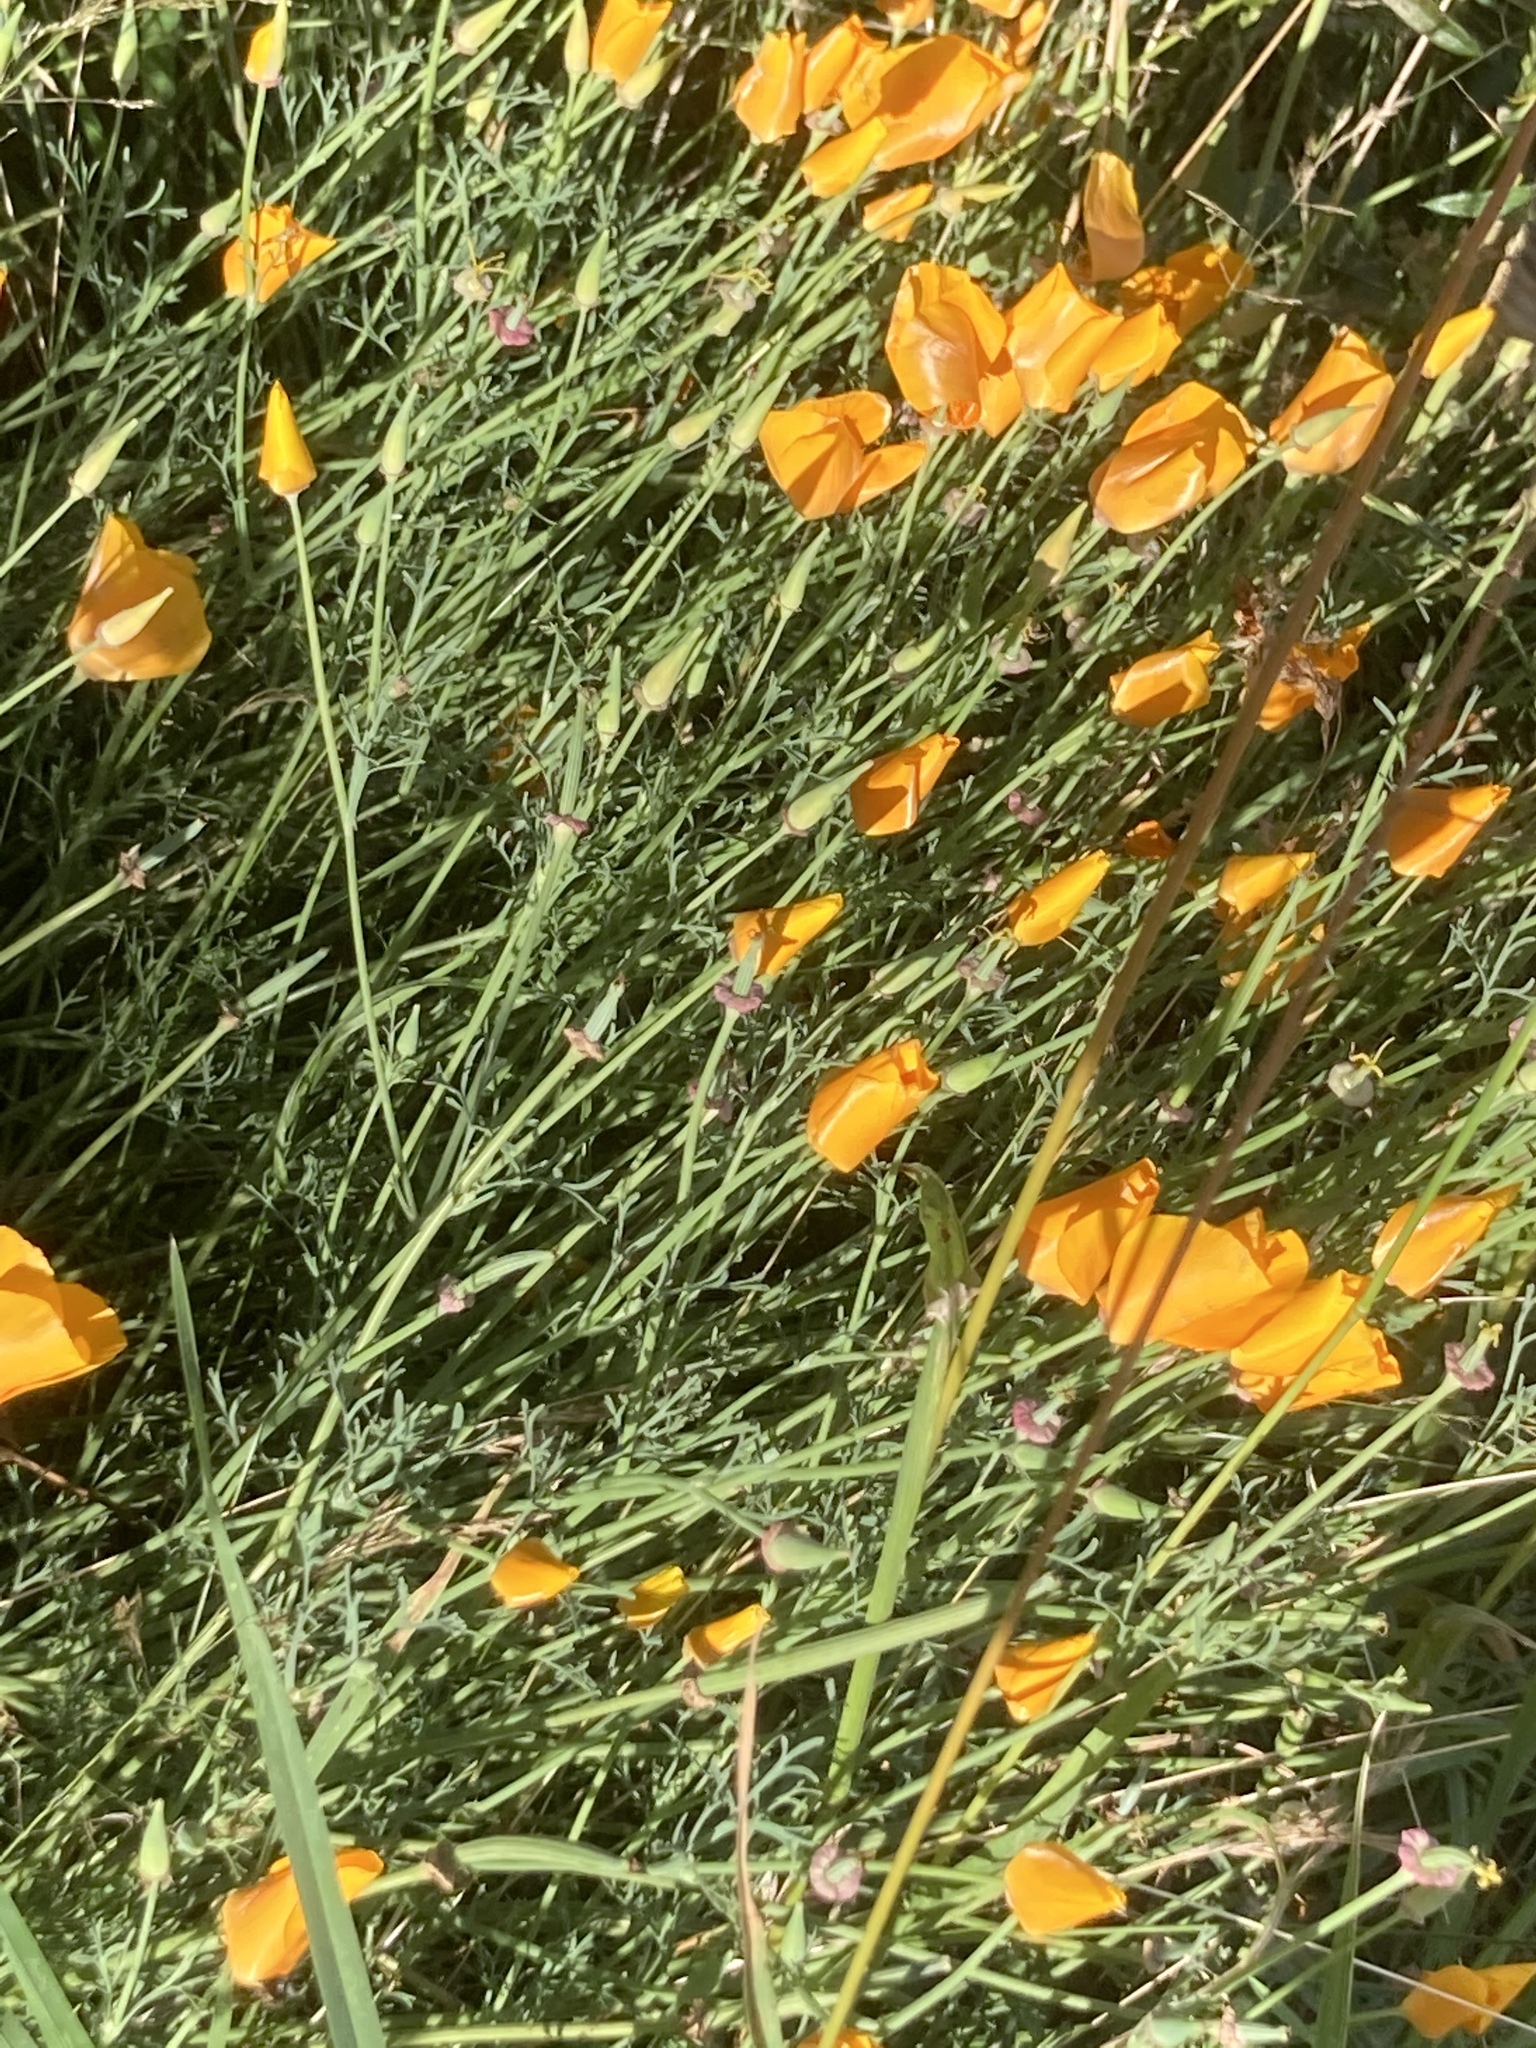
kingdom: Plantae
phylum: Tracheophyta
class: Magnoliopsida
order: Ranunculales
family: Papaveraceae
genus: Eschscholzia
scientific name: Eschscholzia californica
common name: California poppy
